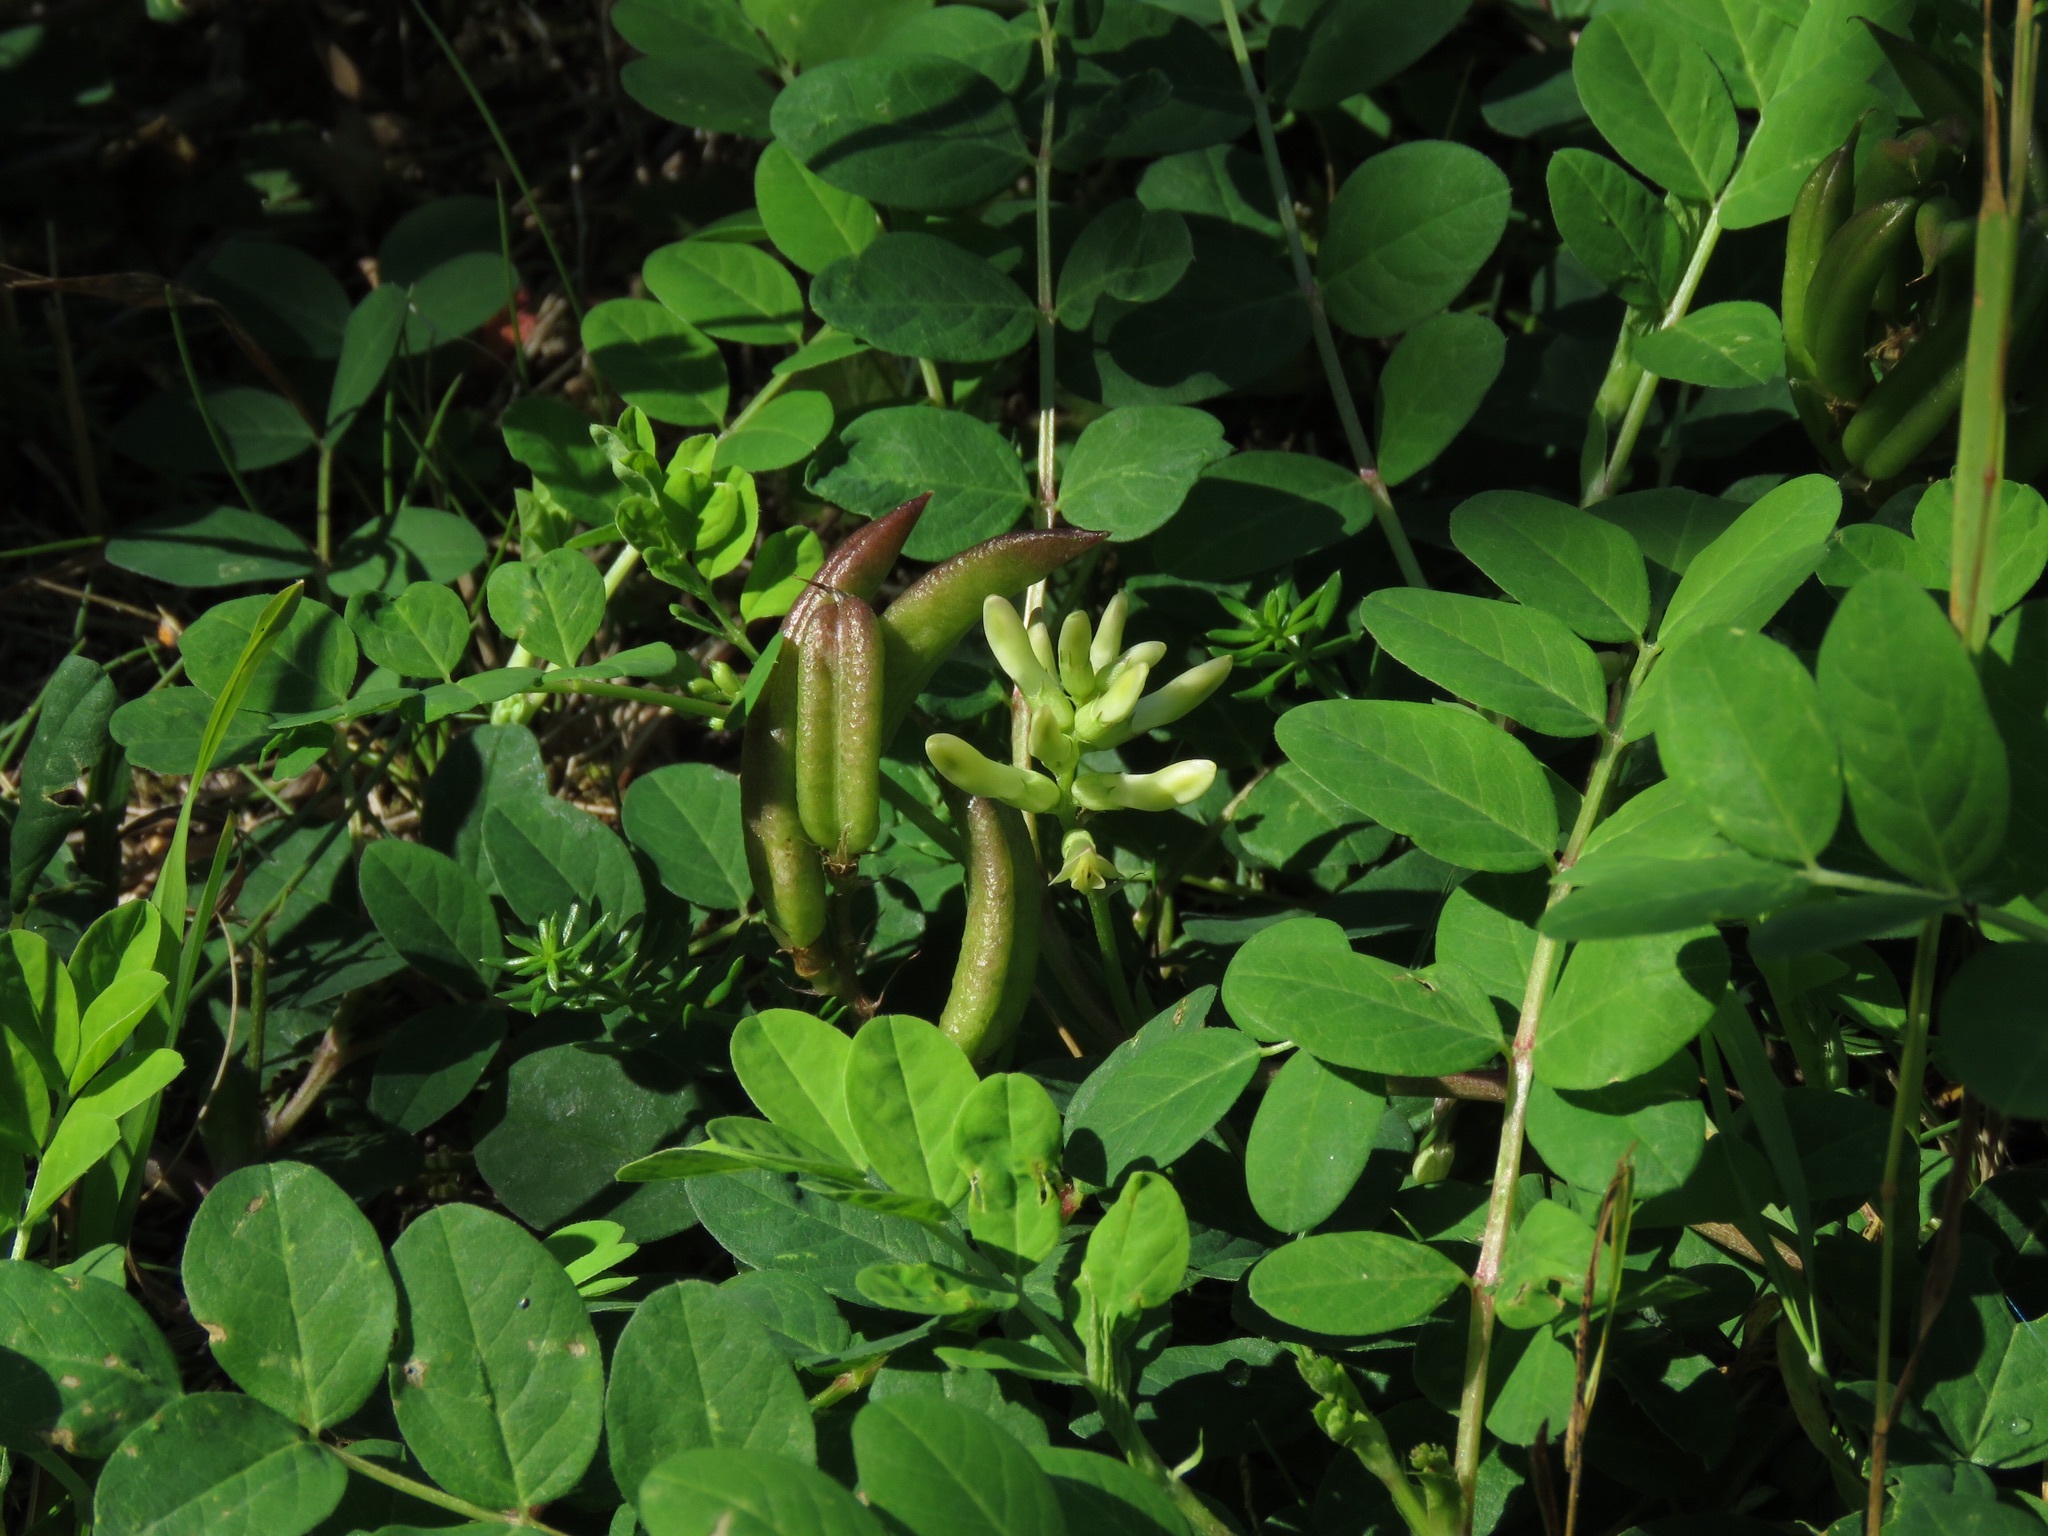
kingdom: Plantae
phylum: Tracheophyta
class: Magnoliopsida
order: Fabales
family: Fabaceae
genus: Astragalus
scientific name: Astragalus glycyphyllos
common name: Wild liquorice
